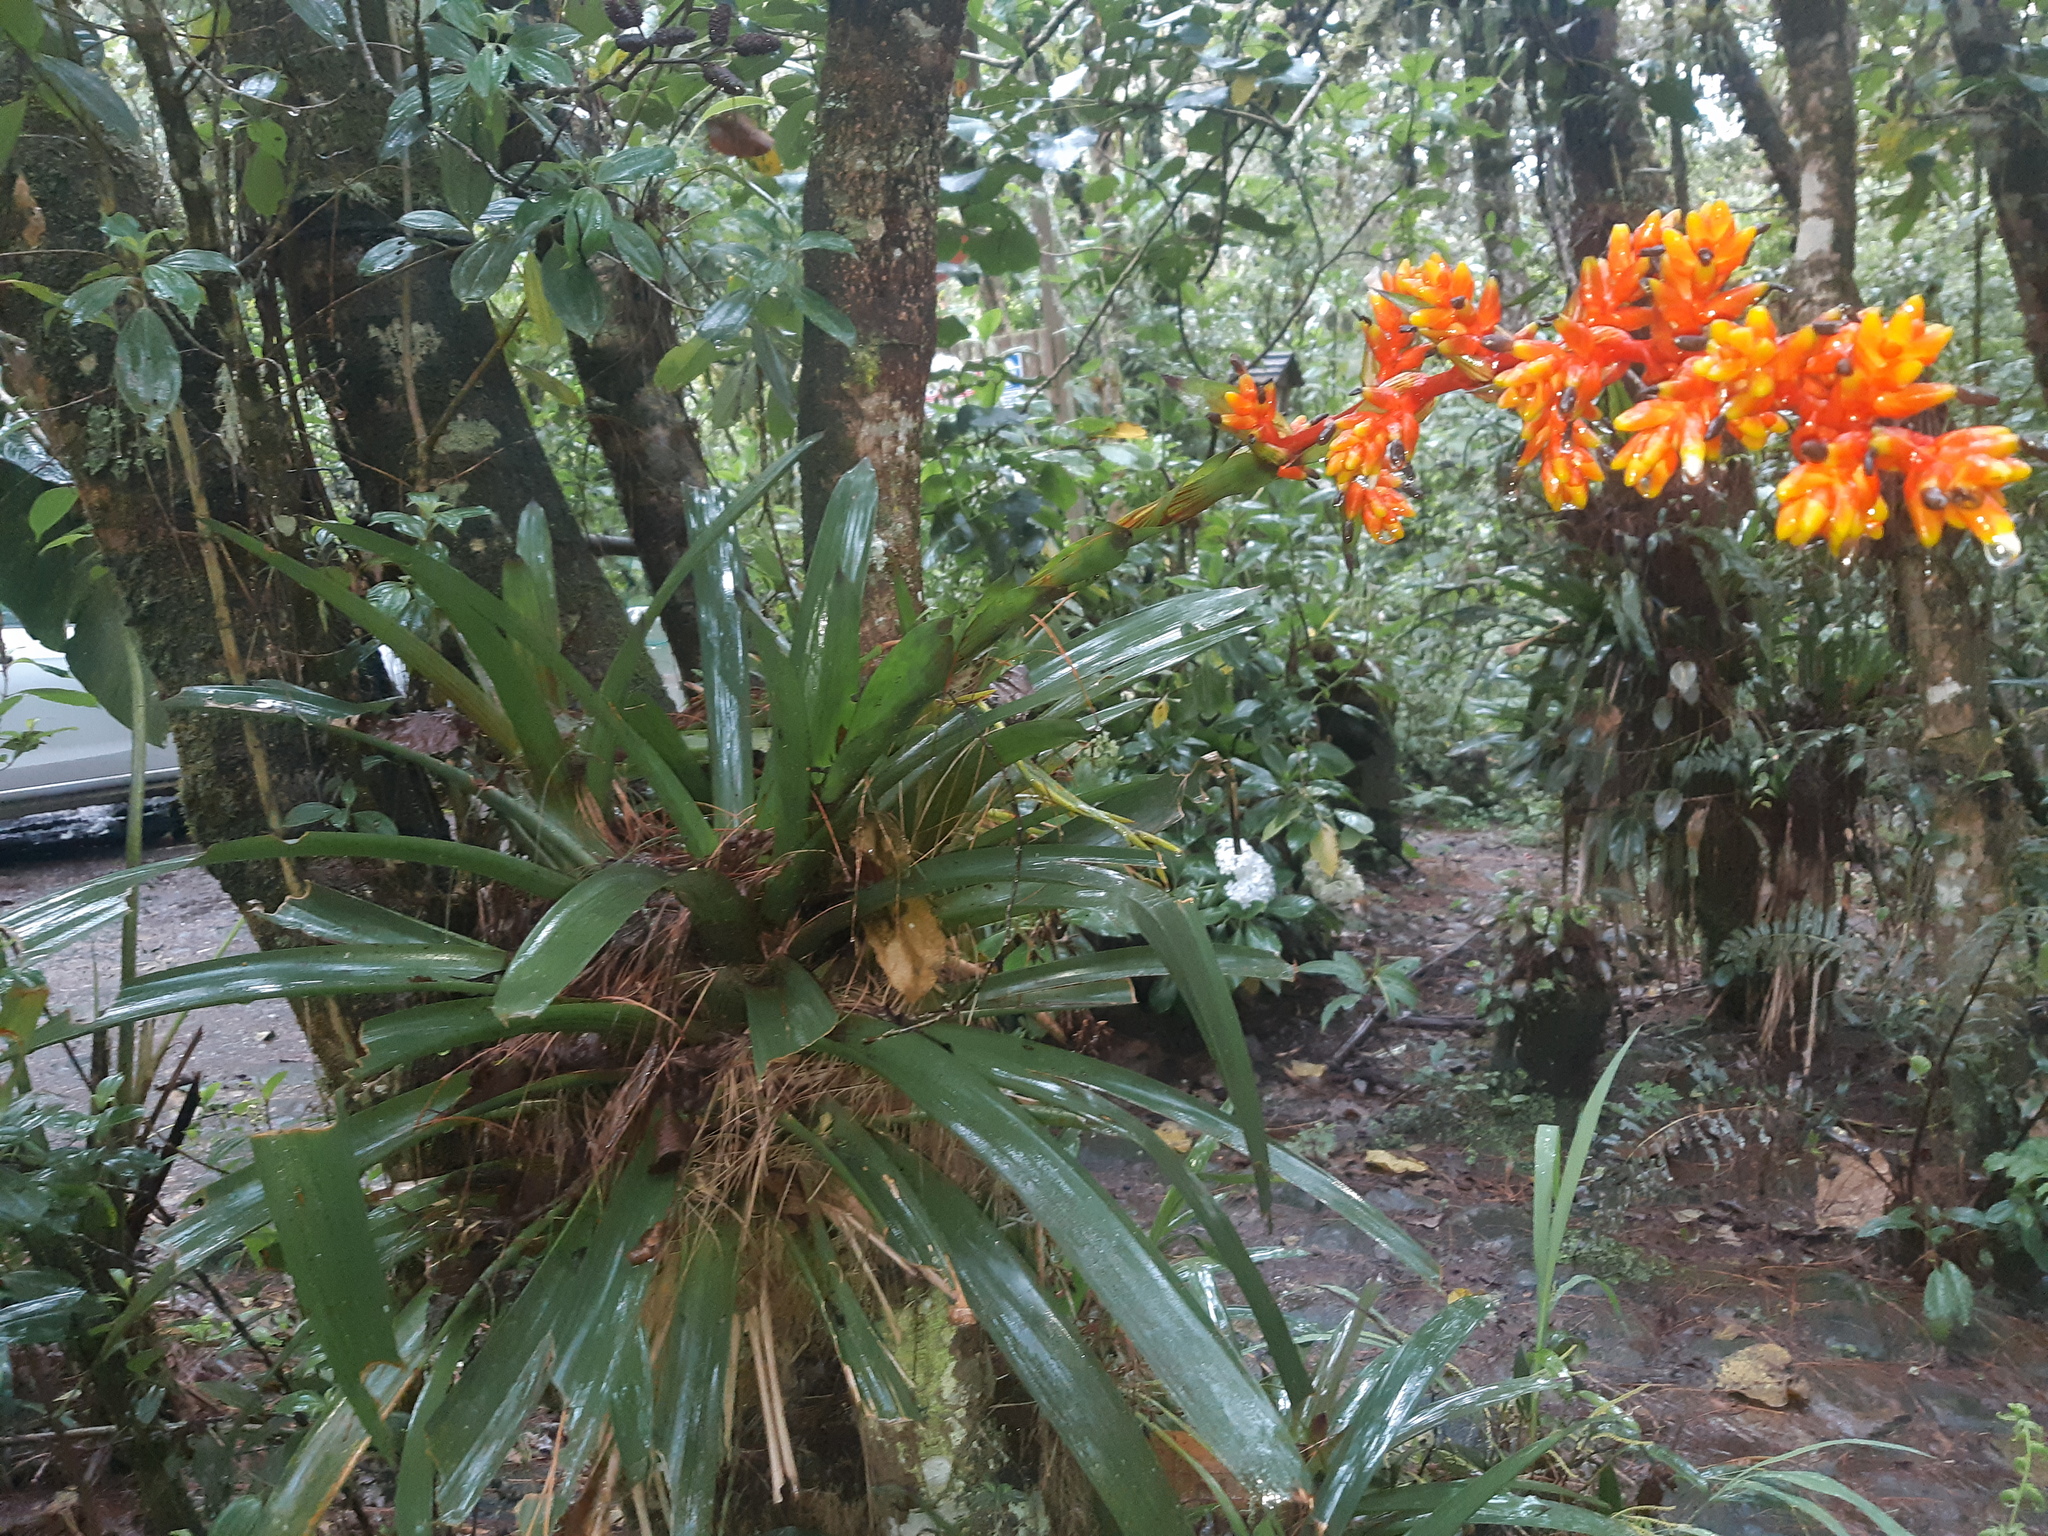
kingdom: Plantae
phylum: Tracheophyta
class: Liliopsida
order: Poales
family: Bromeliaceae
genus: Guzmania
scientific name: Guzmania multiflora
